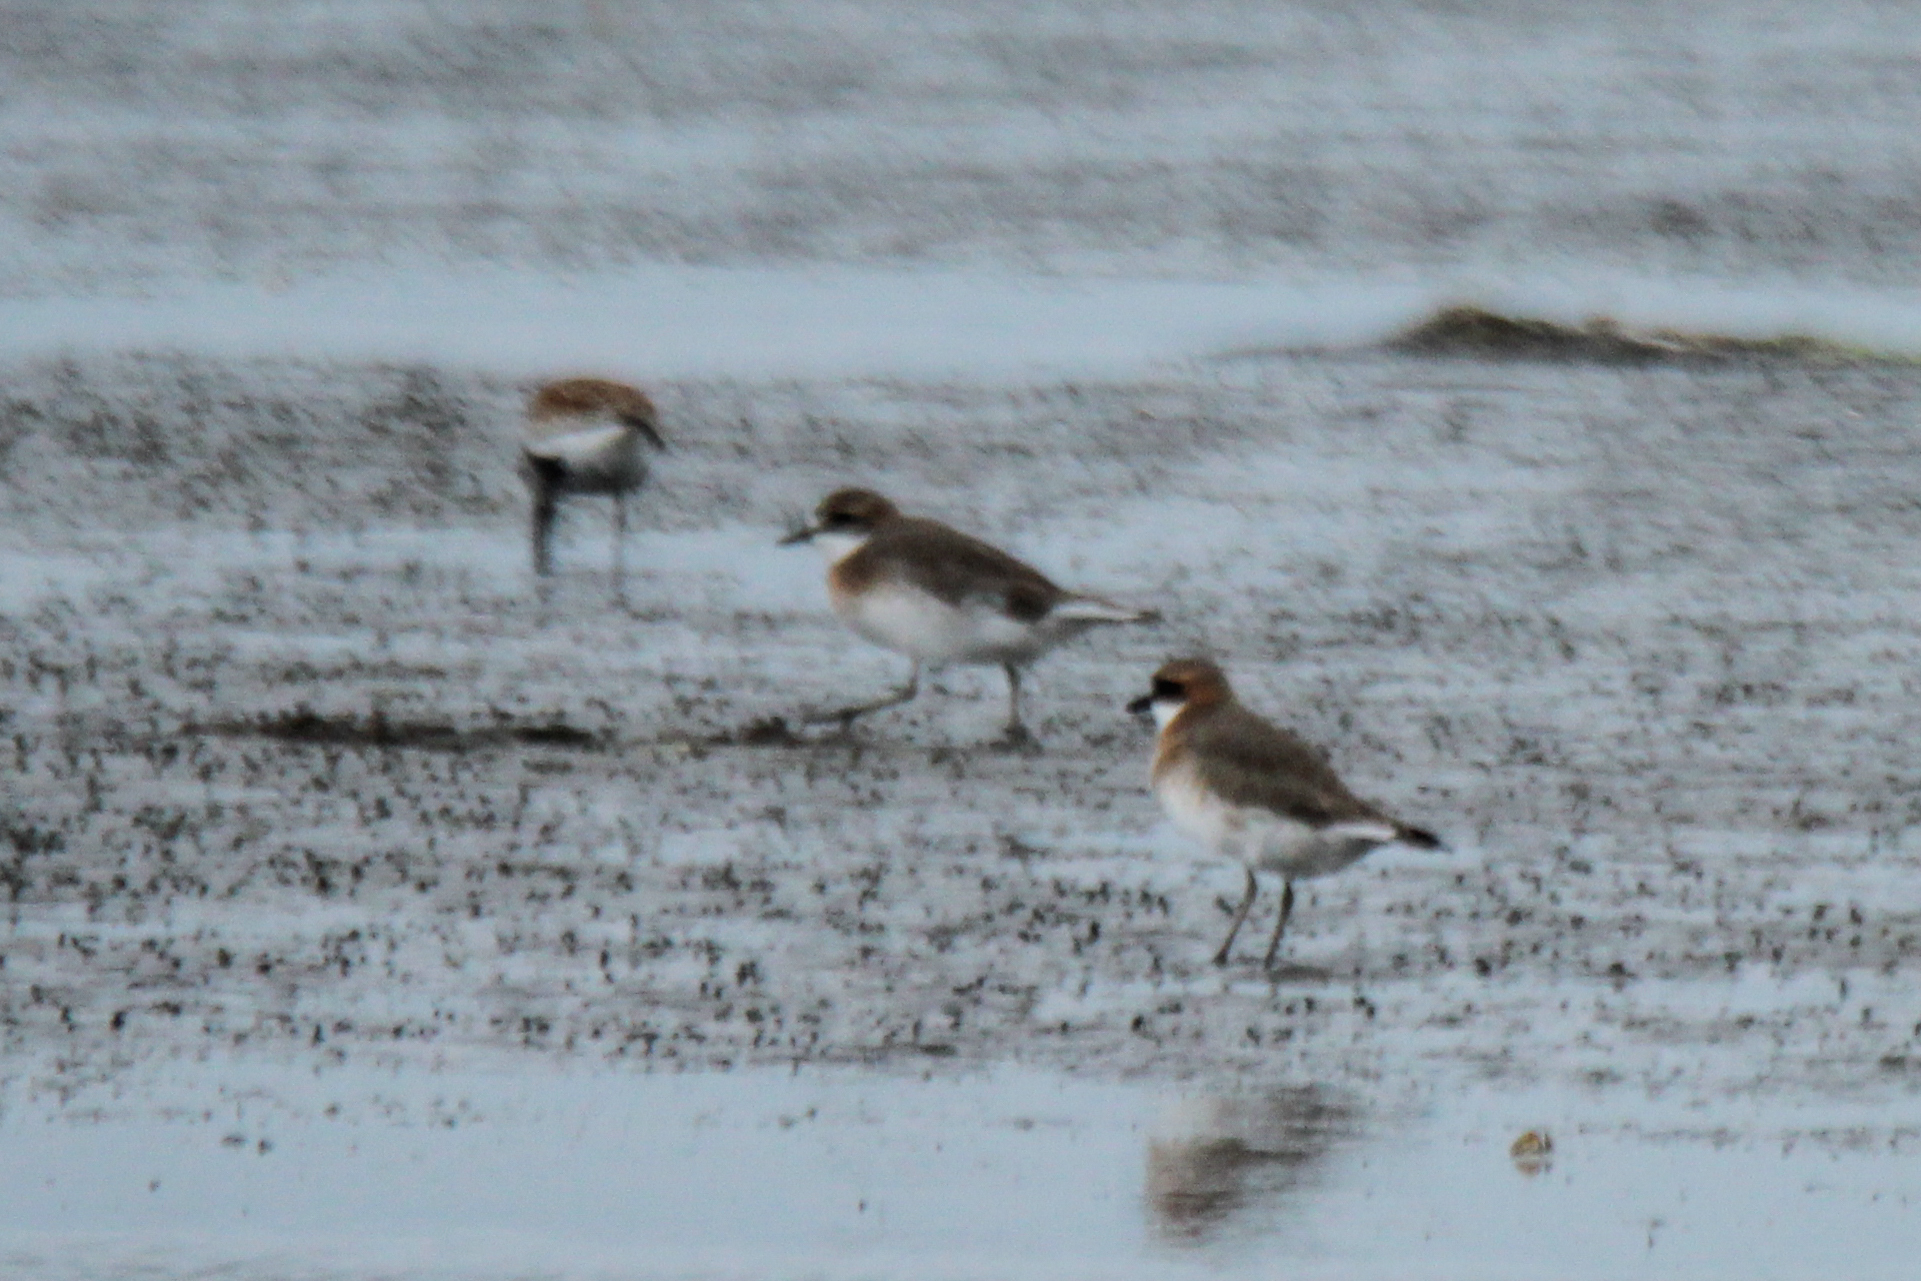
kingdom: Animalia
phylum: Chordata
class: Aves
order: Charadriiformes
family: Charadriidae
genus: Anarhynchus
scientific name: Anarhynchus
